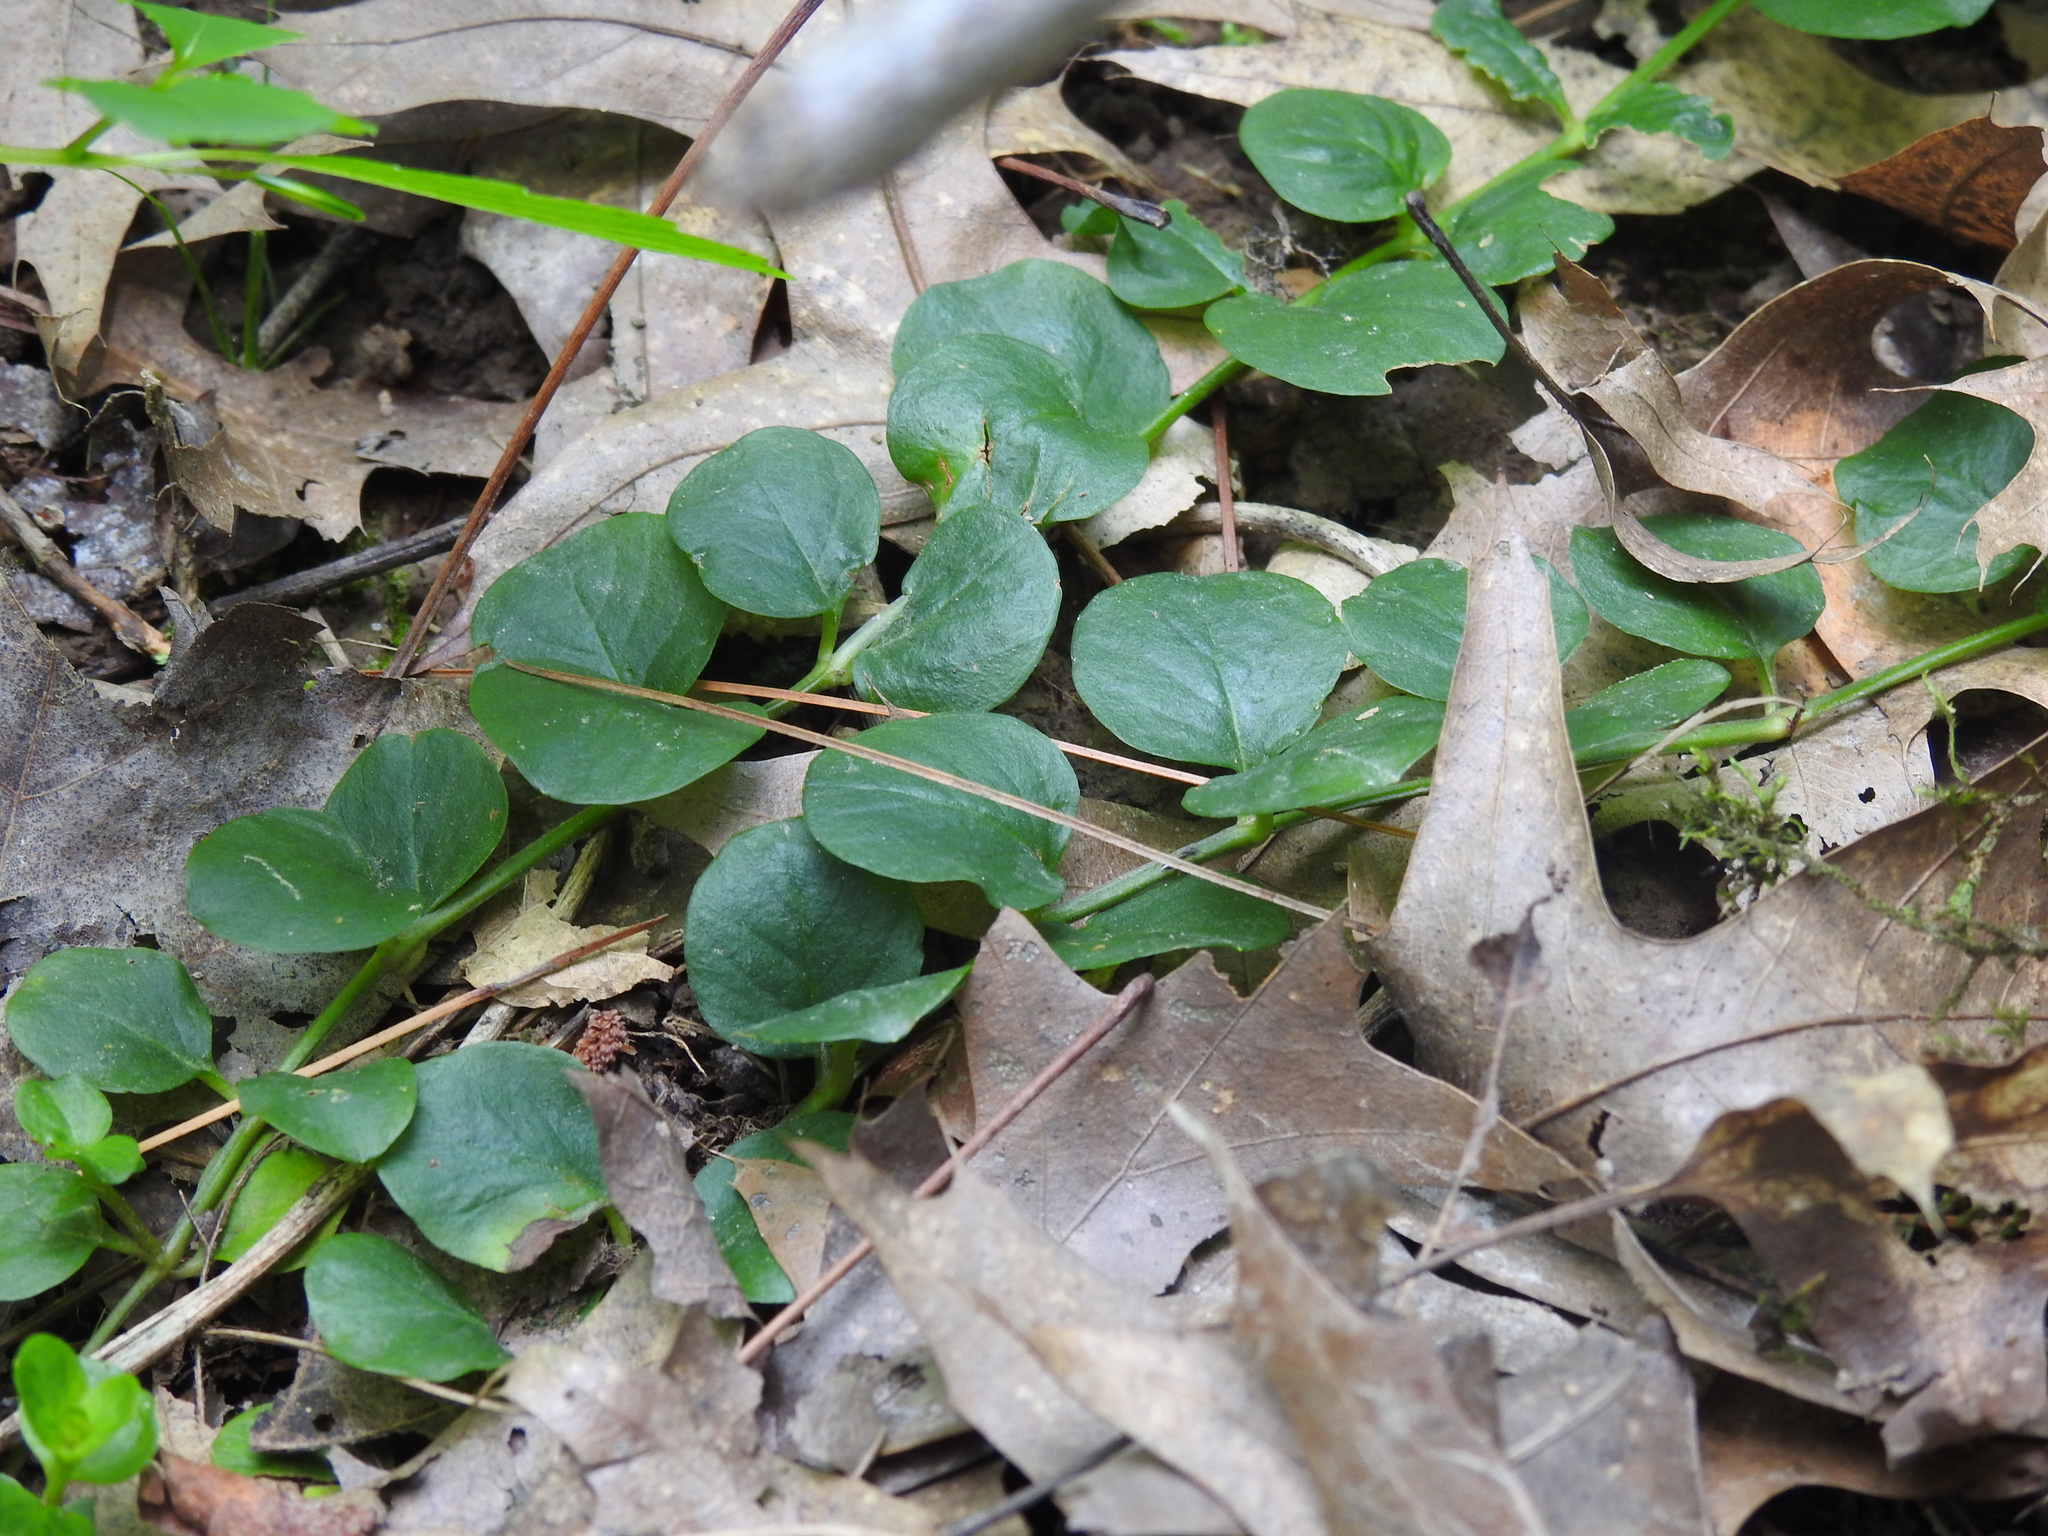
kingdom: Plantae
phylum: Tracheophyta
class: Magnoliopsida
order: Ericales
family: Primulaceae
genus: Lysimachia
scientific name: Lysimachia nummularia
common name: Moneywort
